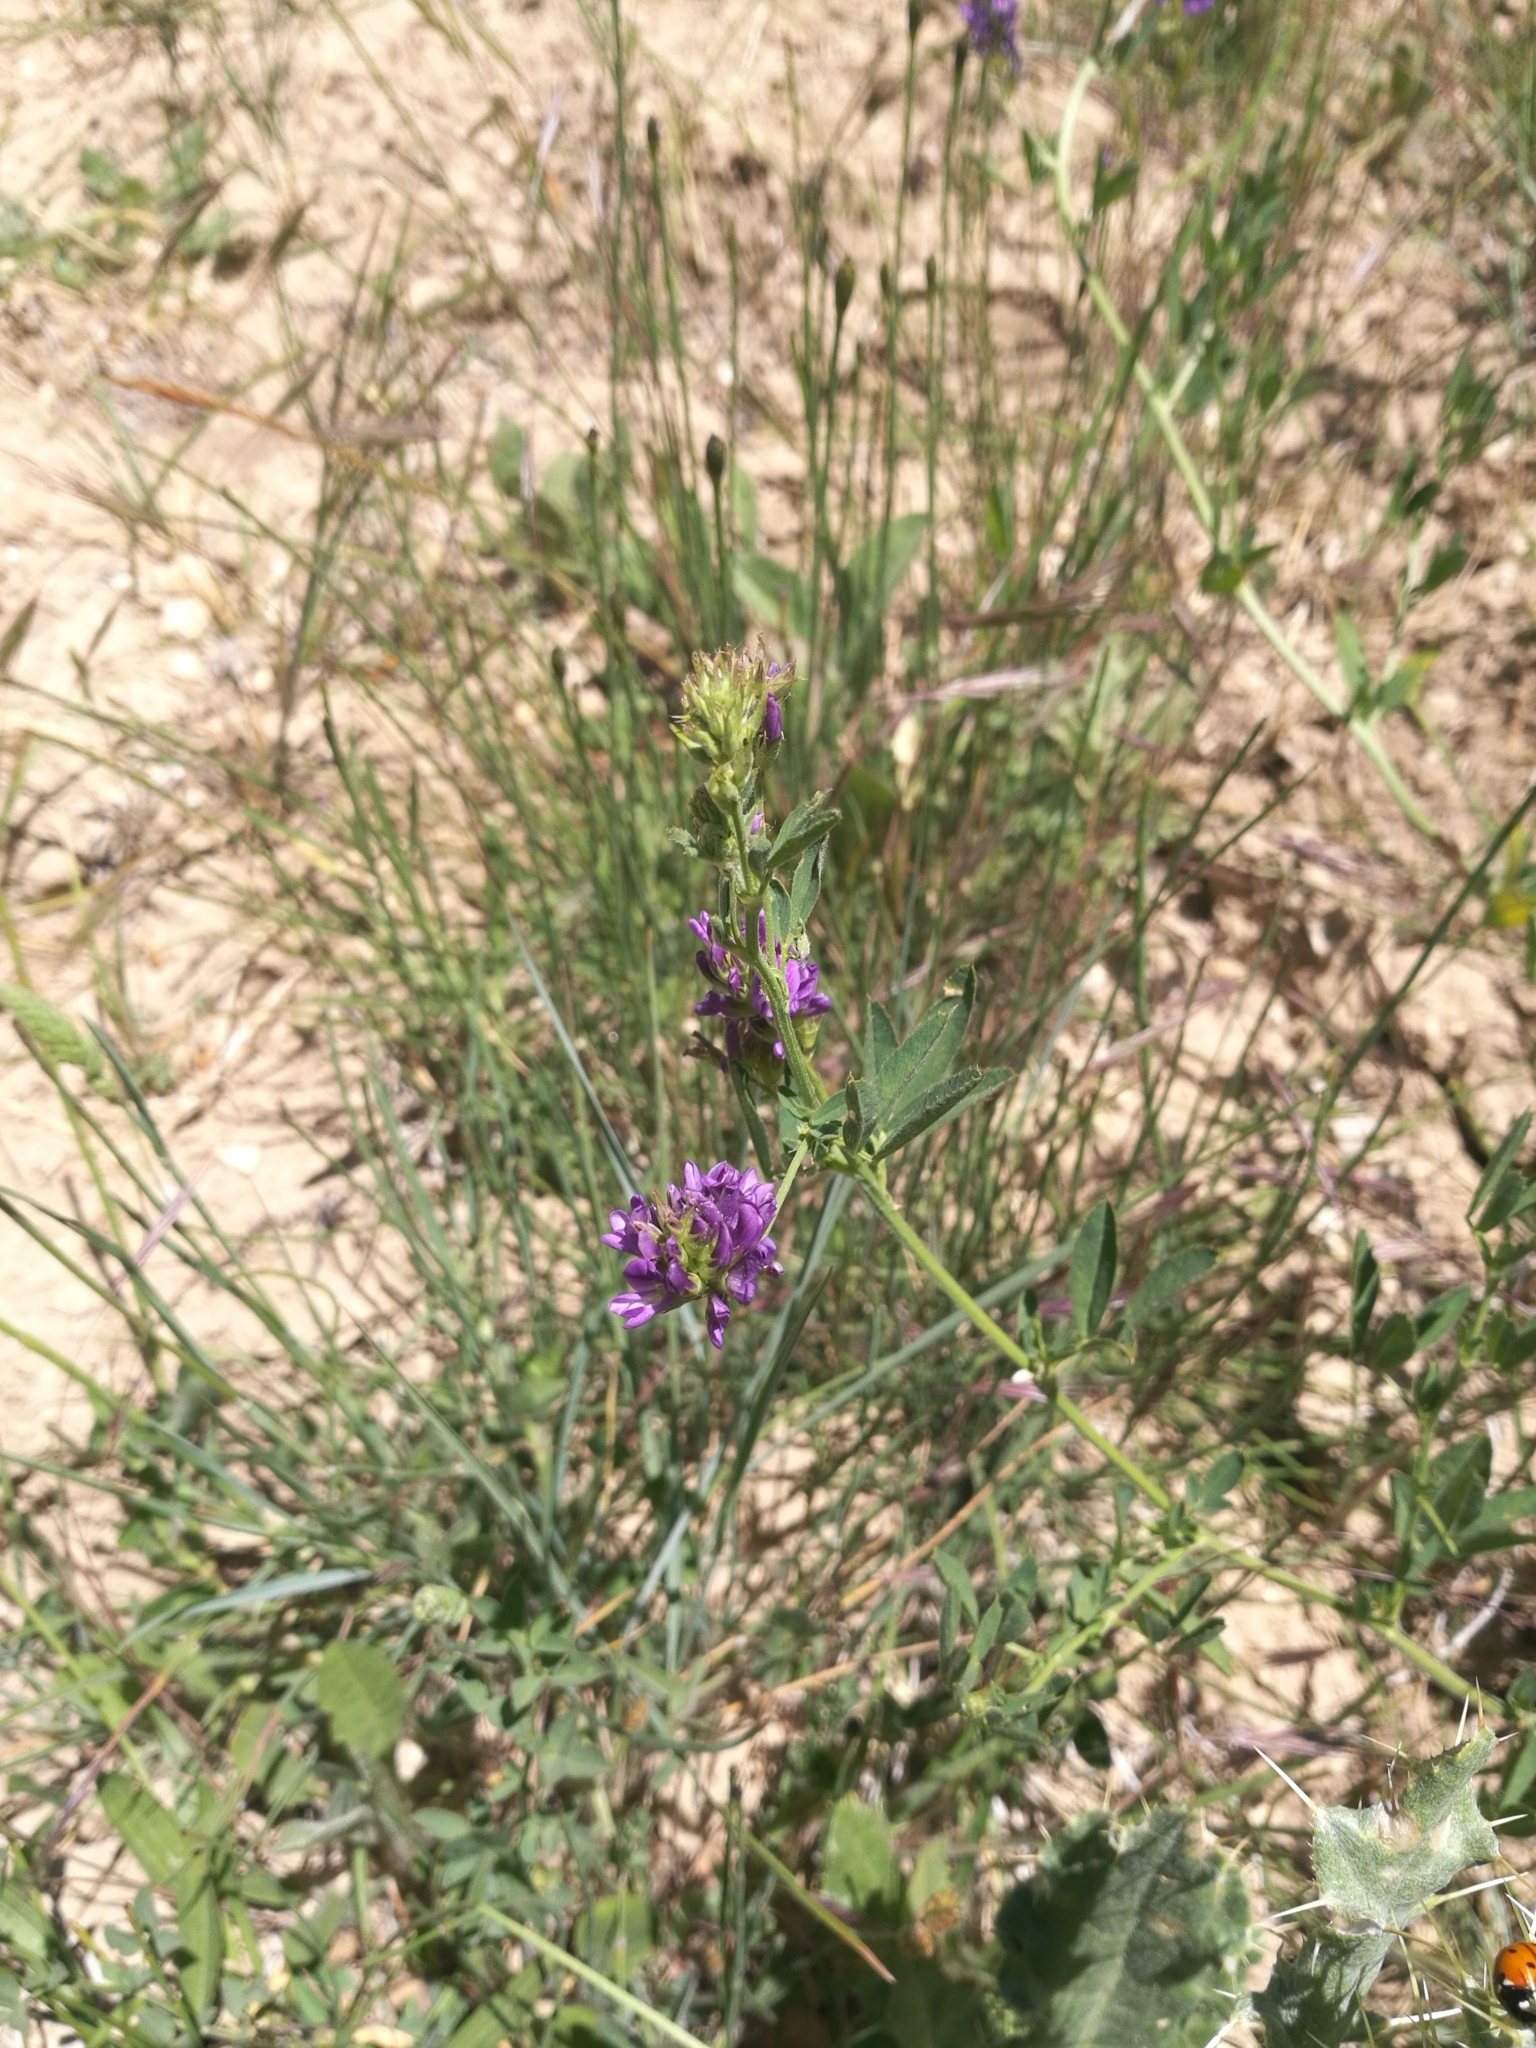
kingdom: Plantae
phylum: Tracheophyta
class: Magnoliopsida
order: Fabales
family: Fabaceae
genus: Medicago
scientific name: Medicago sativa
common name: Alfalfa
